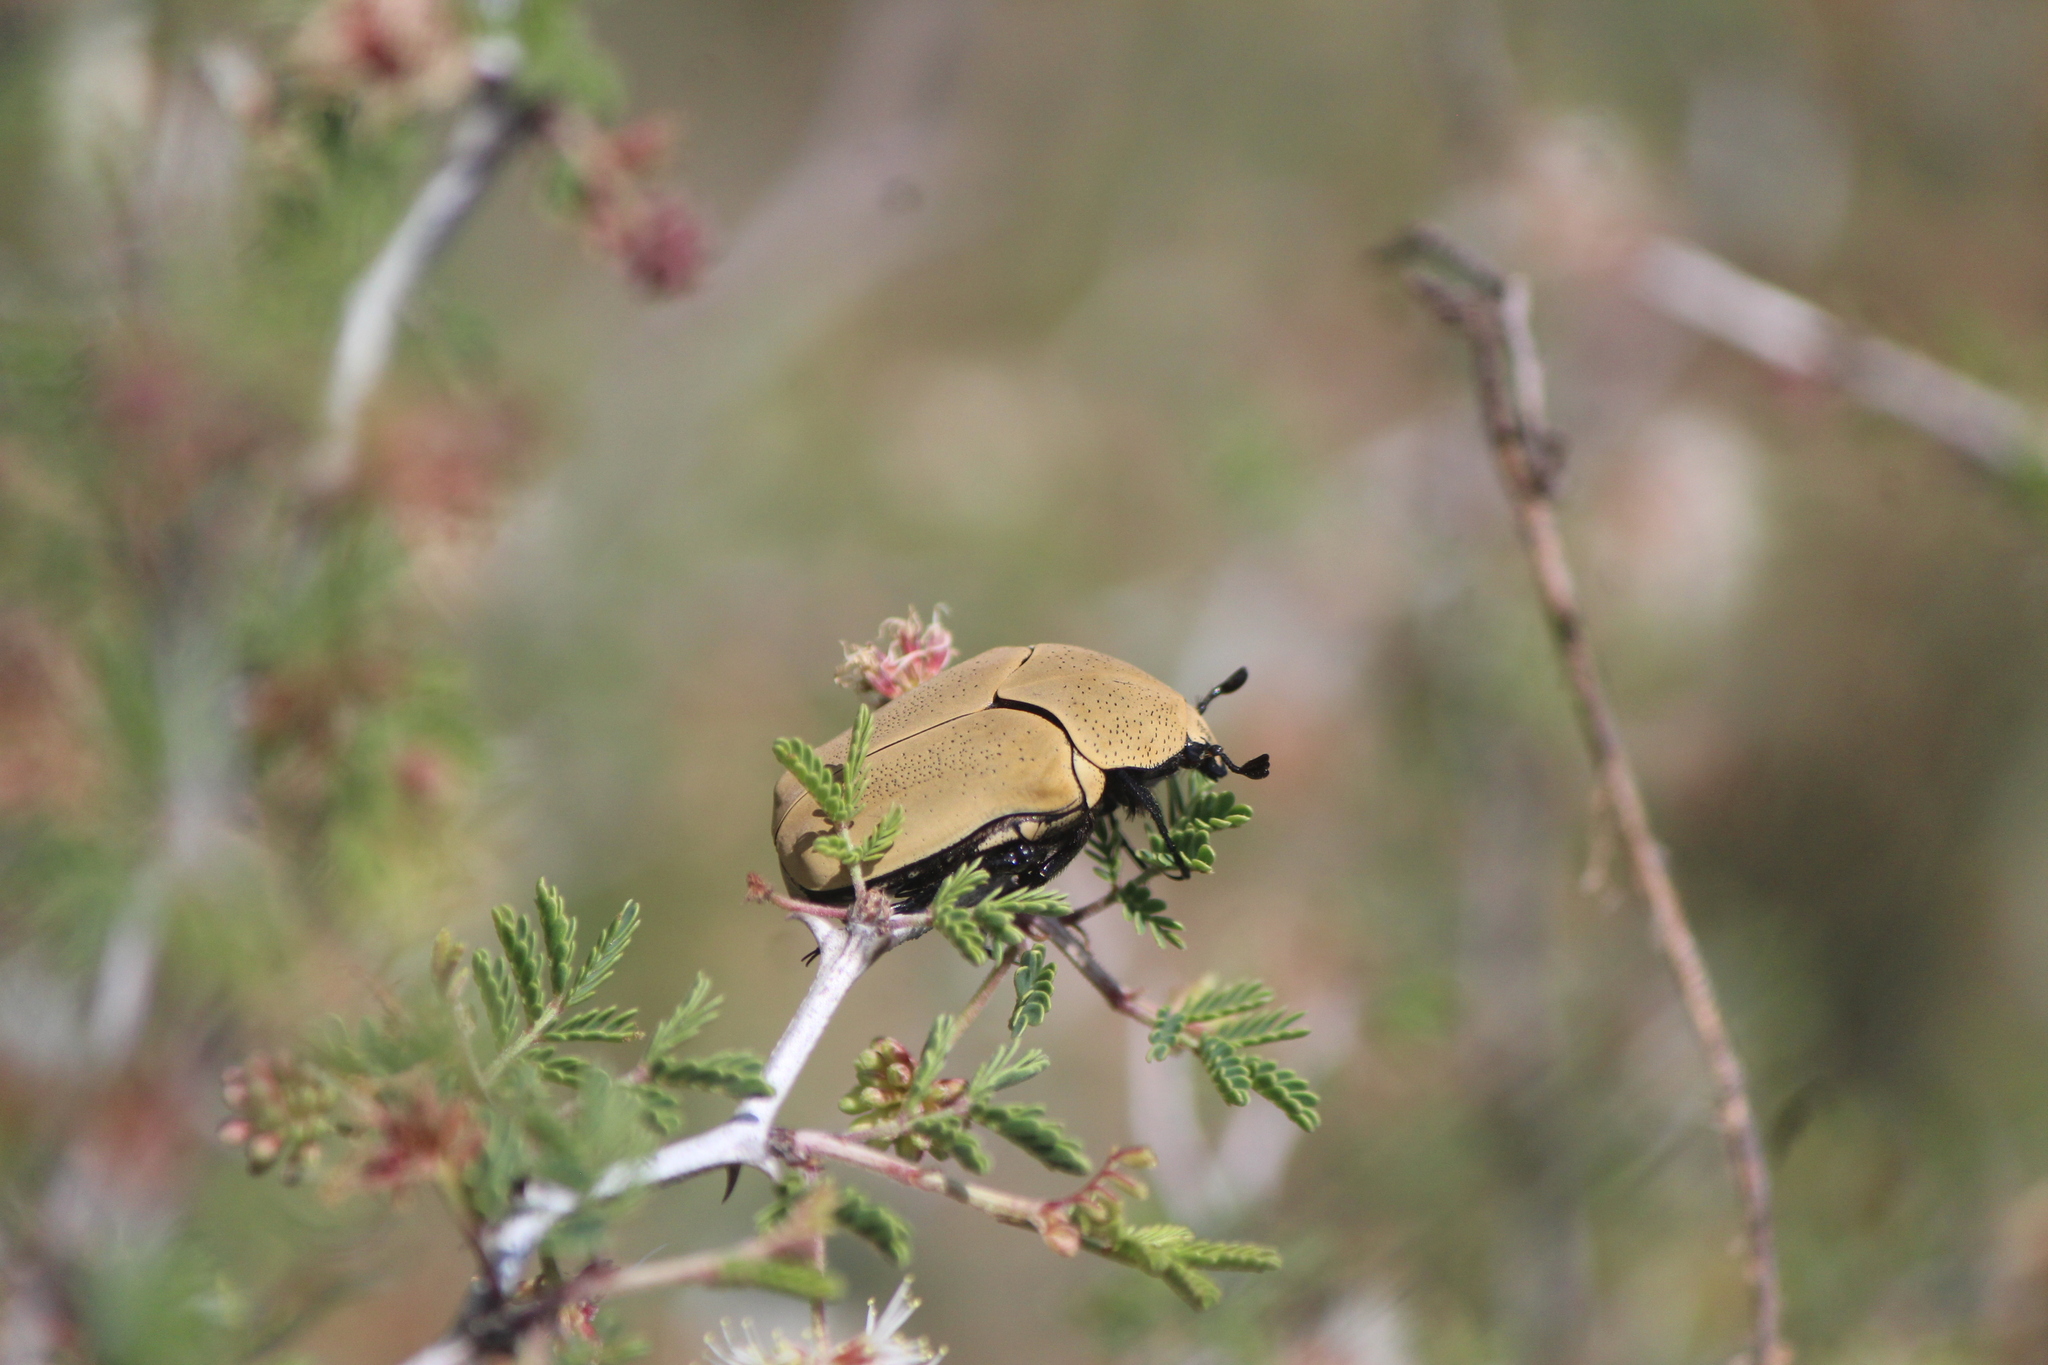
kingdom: Animalia
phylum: Arthropoda
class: Insecta
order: Coleoptera
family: Scarabaeidae
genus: Hologymnetis
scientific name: Hologymnetis cinerea
